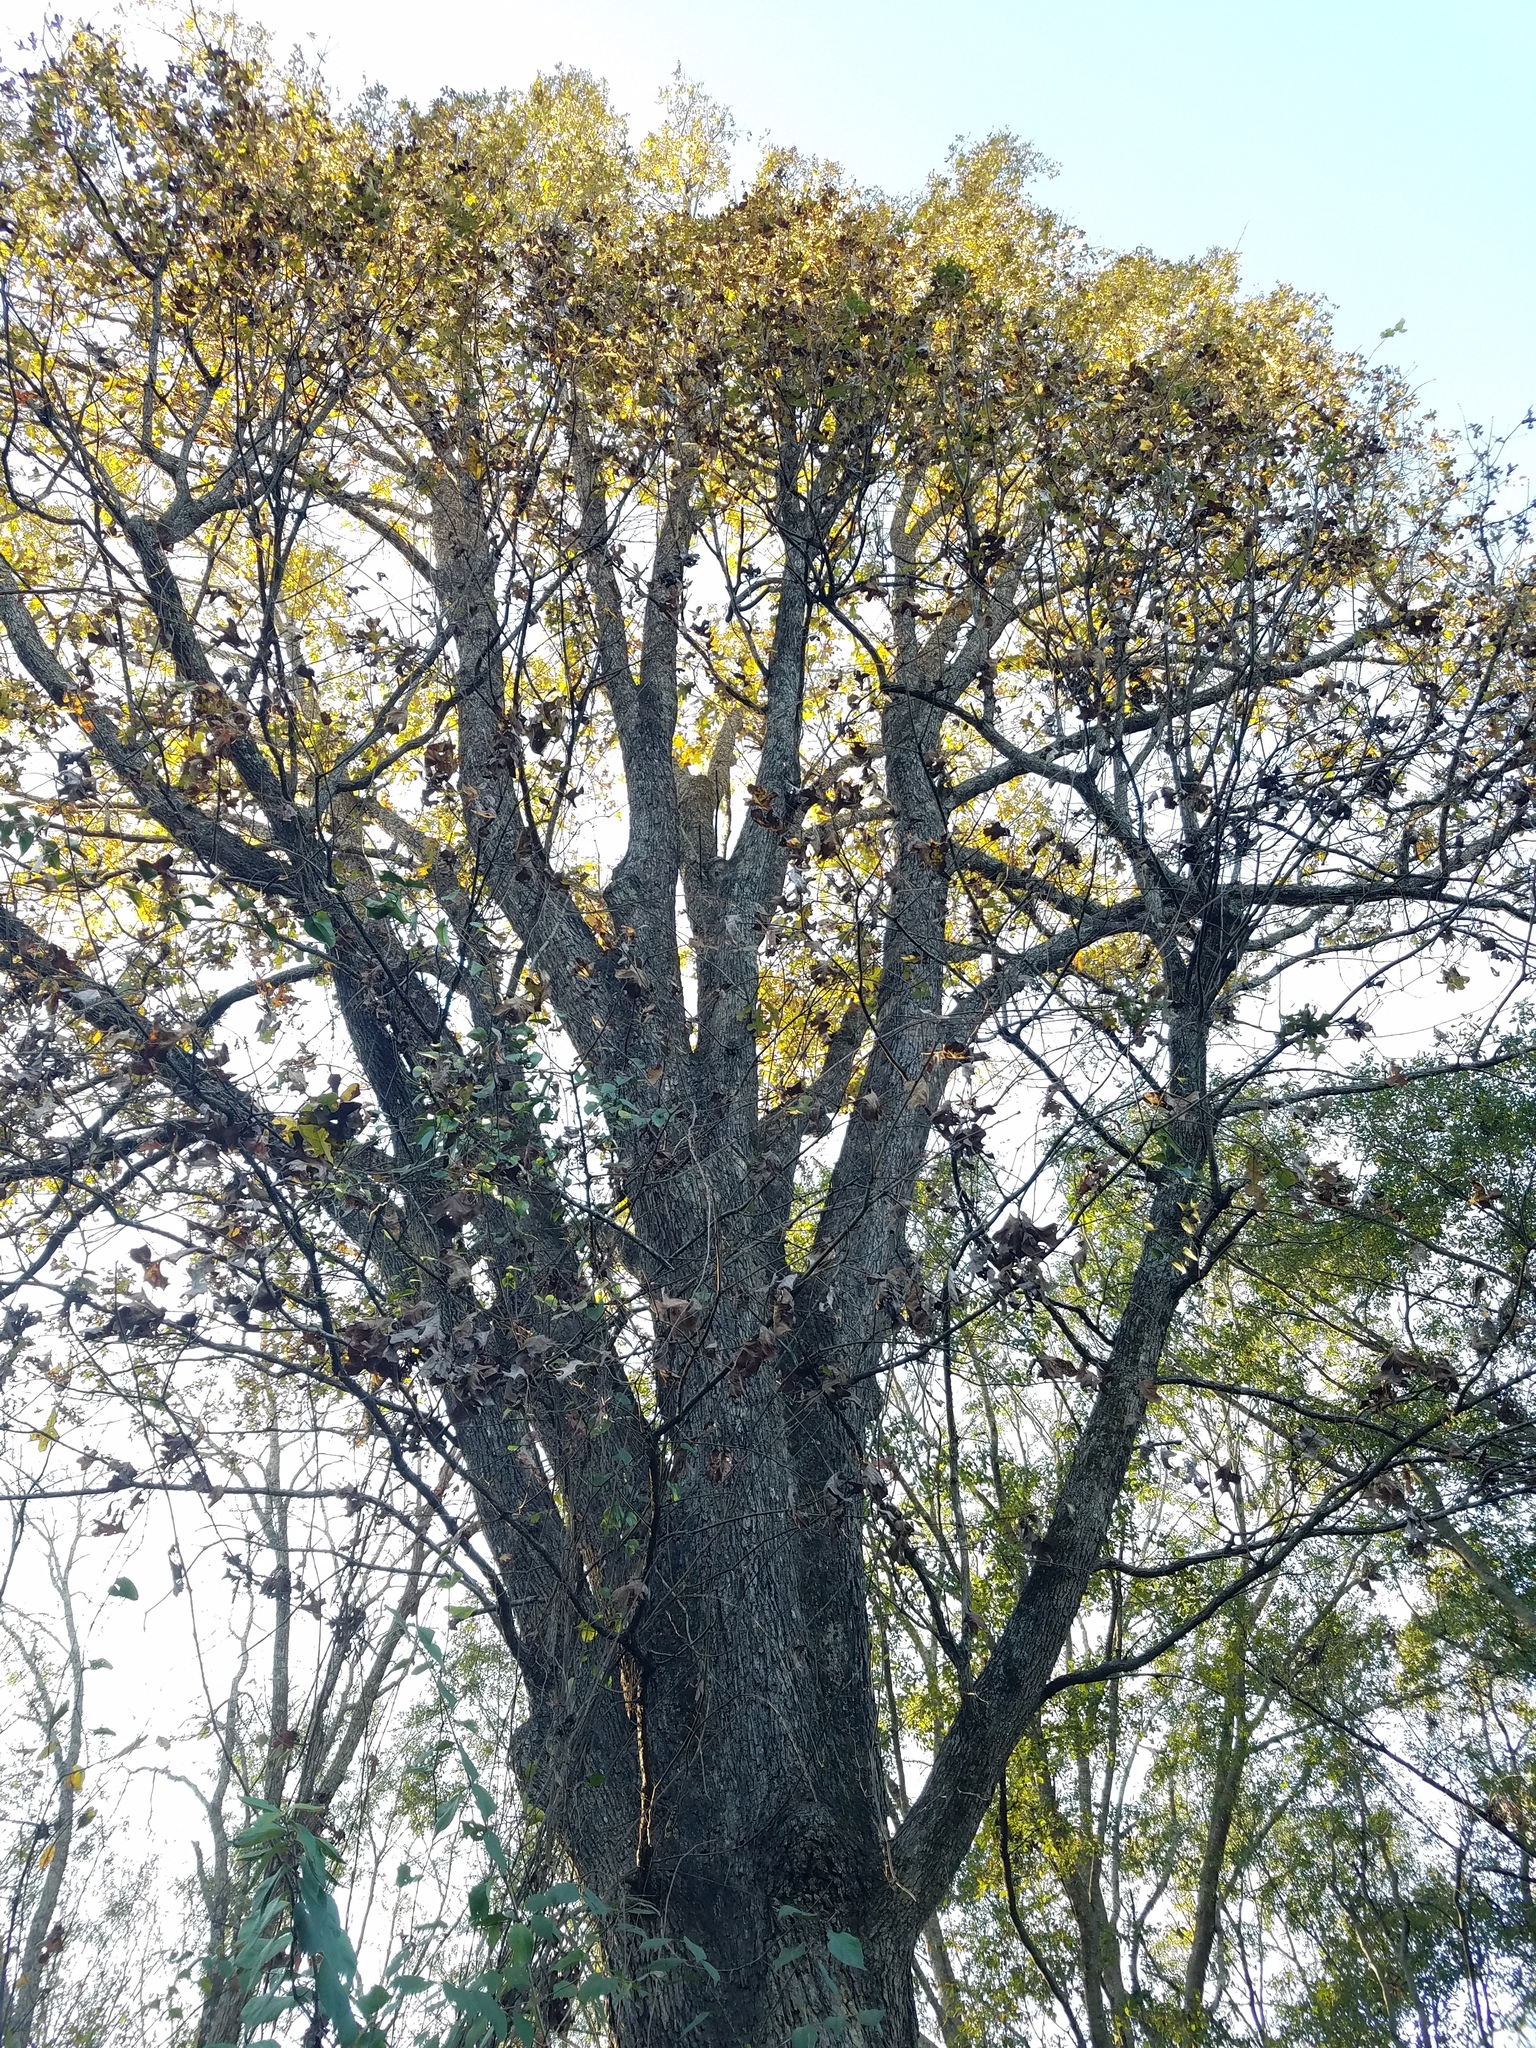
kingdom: Plantae
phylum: Tracheophyta
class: Magnoliopsida
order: Fagales
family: Fagaceae
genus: Quercus
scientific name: Quercus stellata
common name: Post oak
